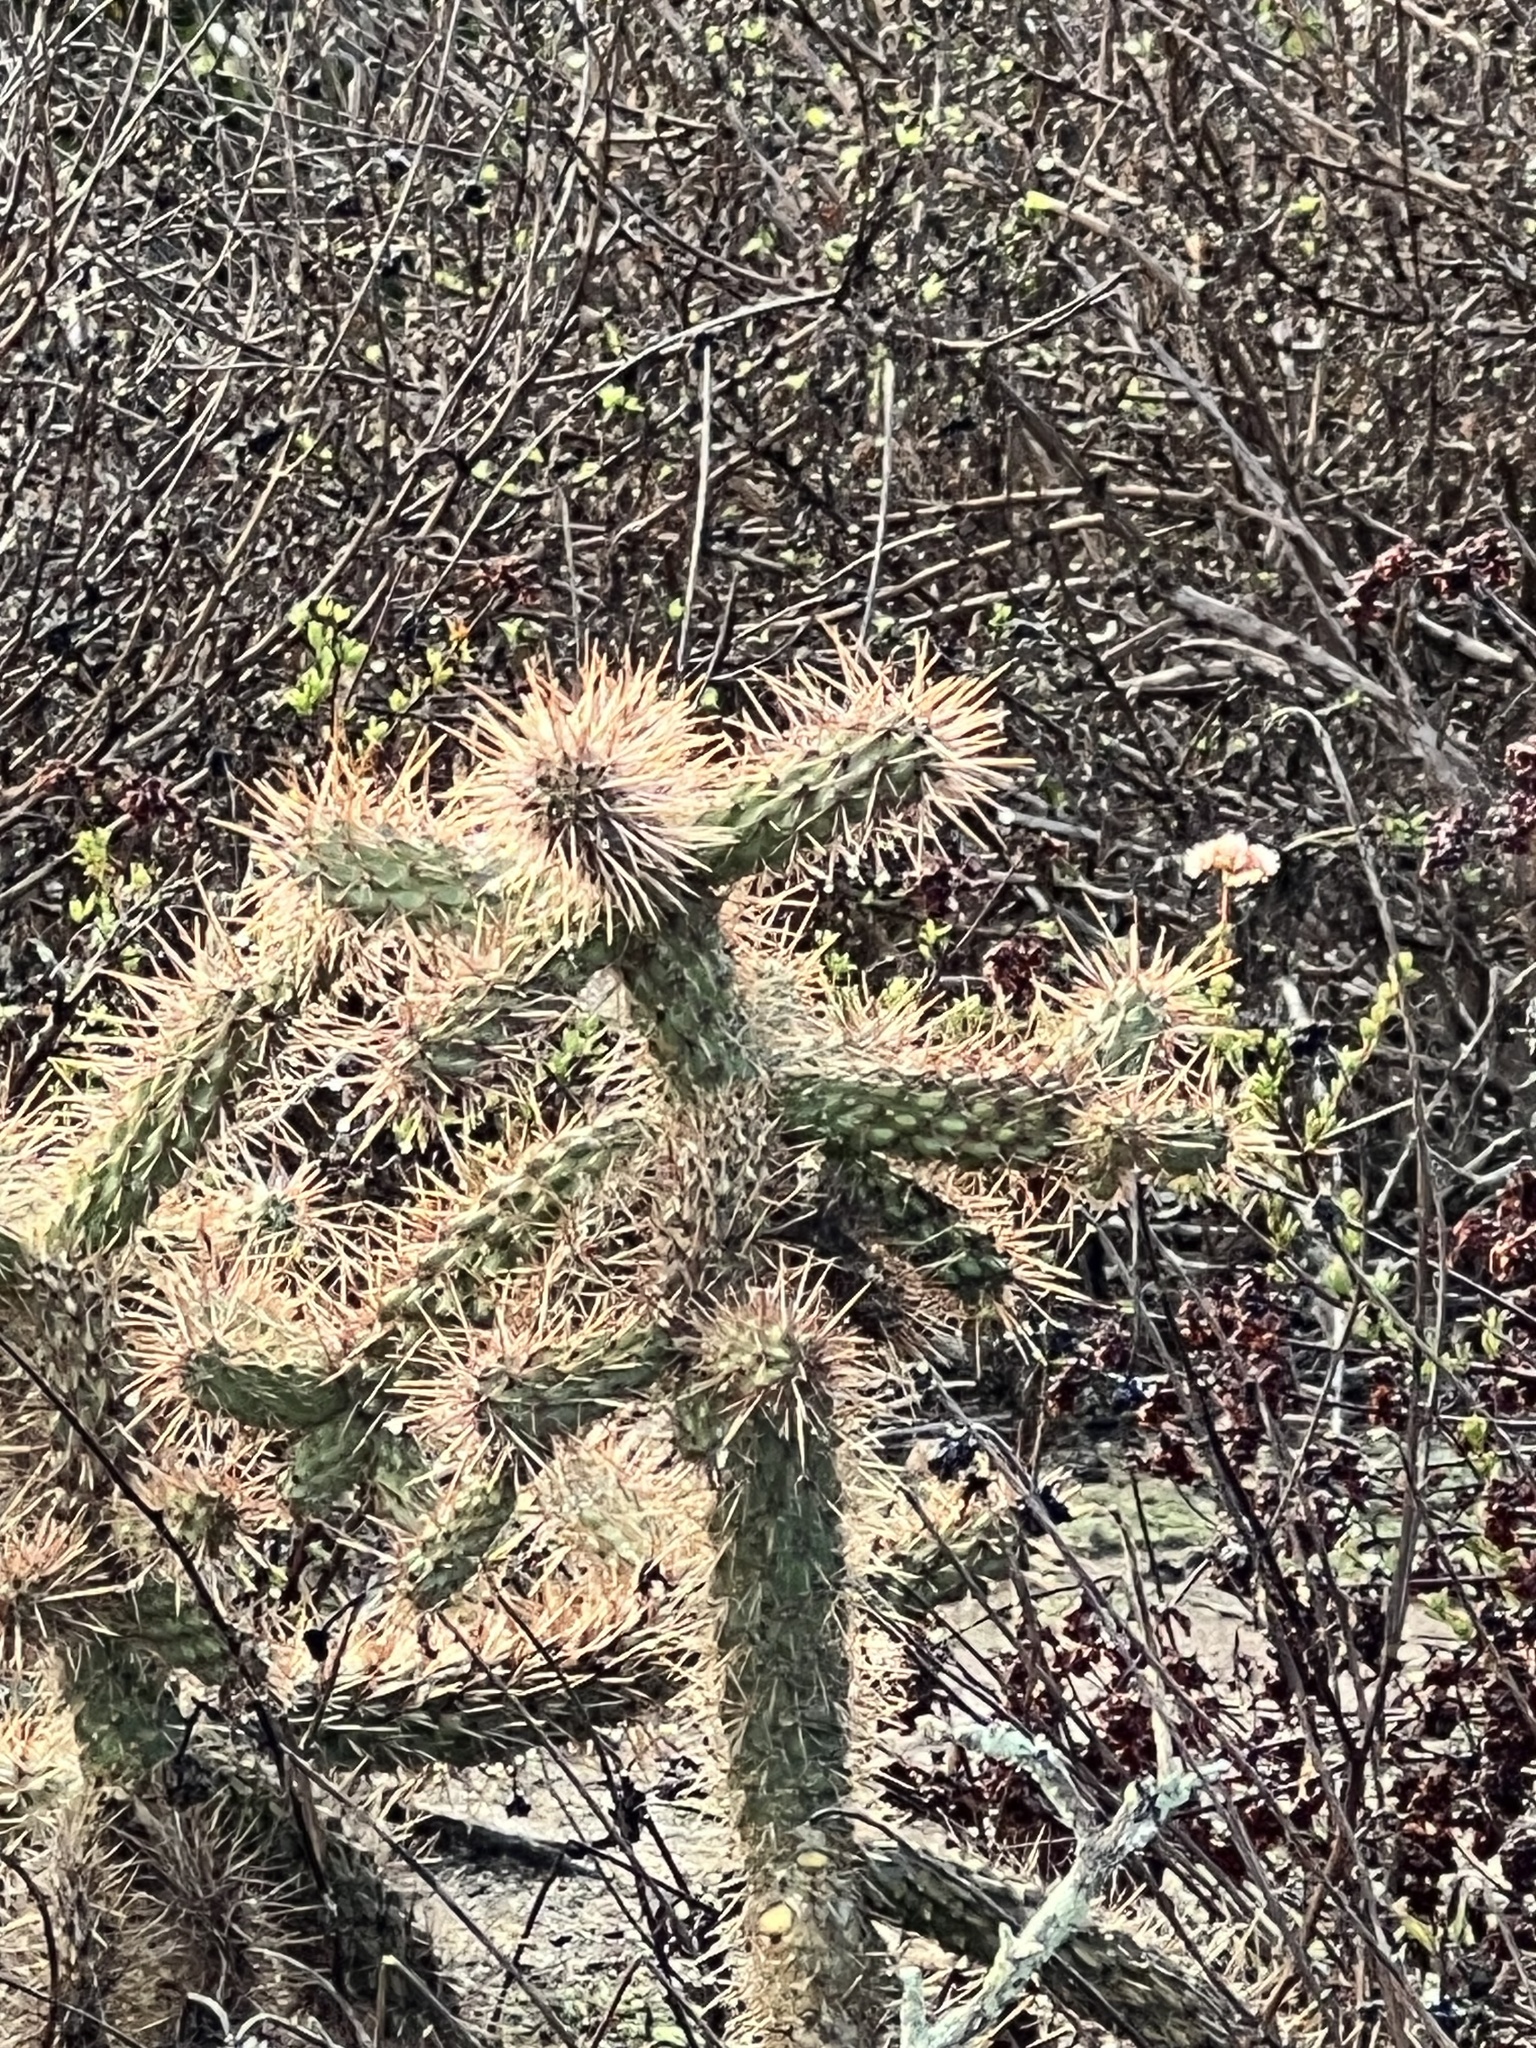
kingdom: Plantae
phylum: Tracheophyta
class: Magnoliopsida
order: Caryophyllales
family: Cactaceae
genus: Cylindropuntia
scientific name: Cylindropuntia prolifera
